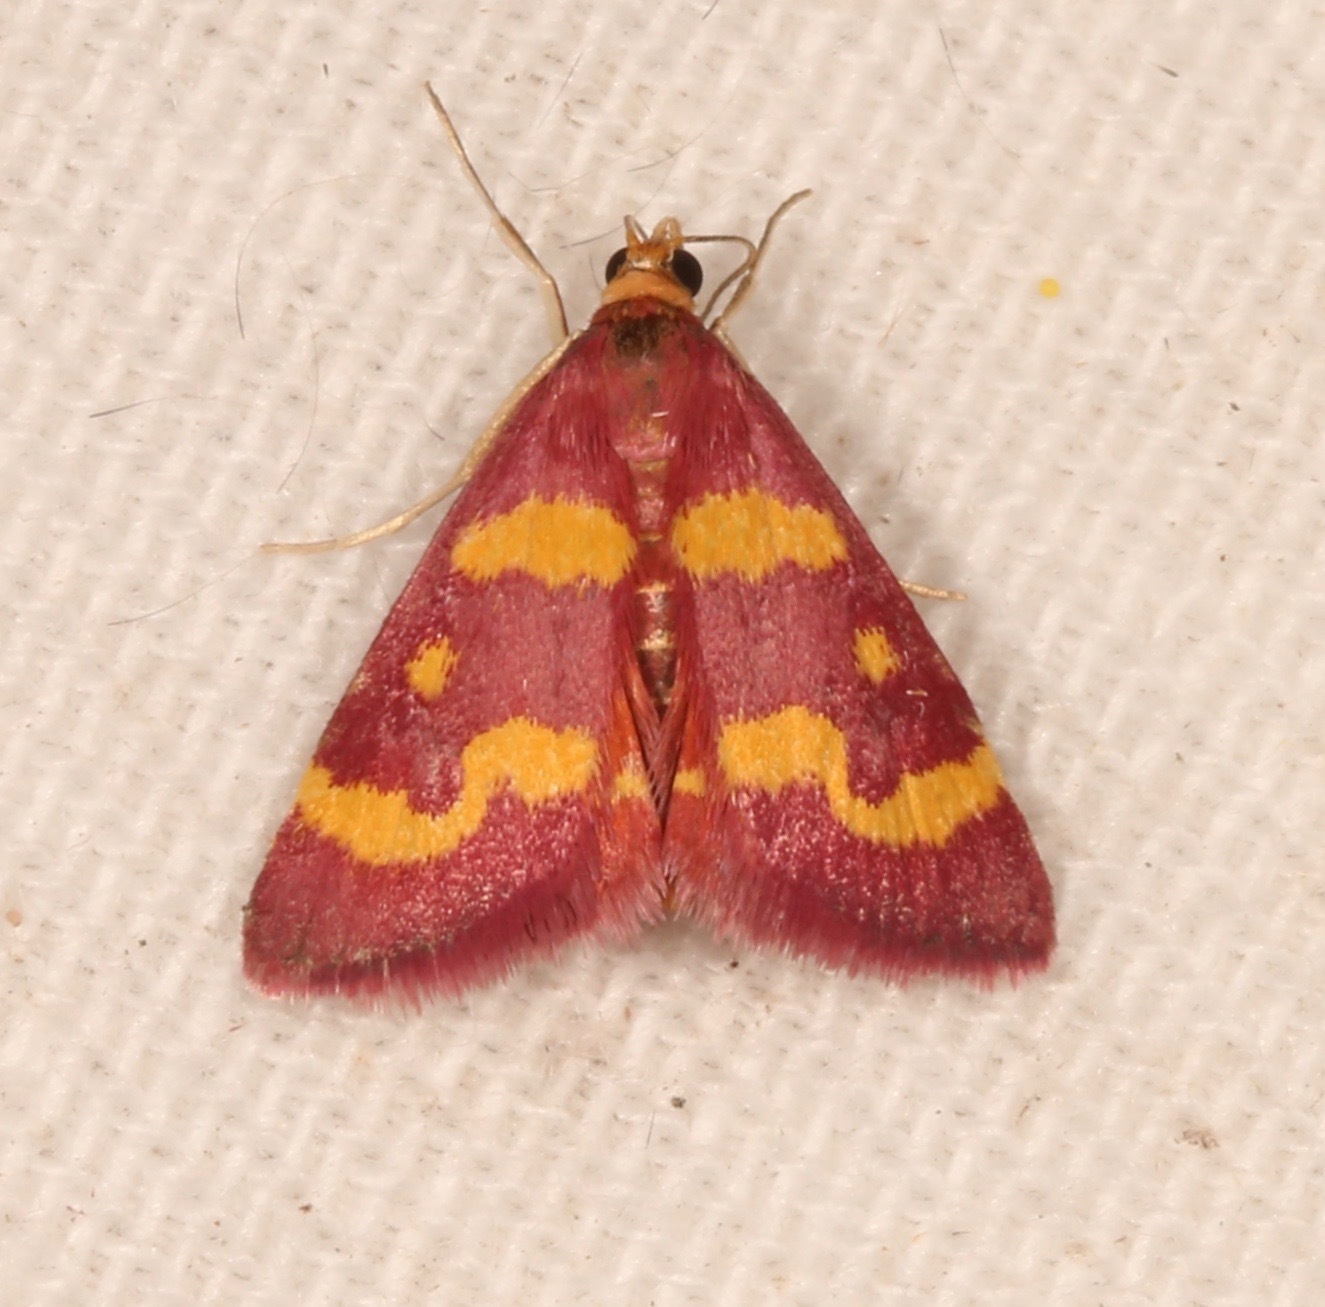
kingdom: Animalia
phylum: Arthropoda
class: Insecta
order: Lepidoptera
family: Crambidae
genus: Pyrausta
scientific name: Pyrausta tyralis
